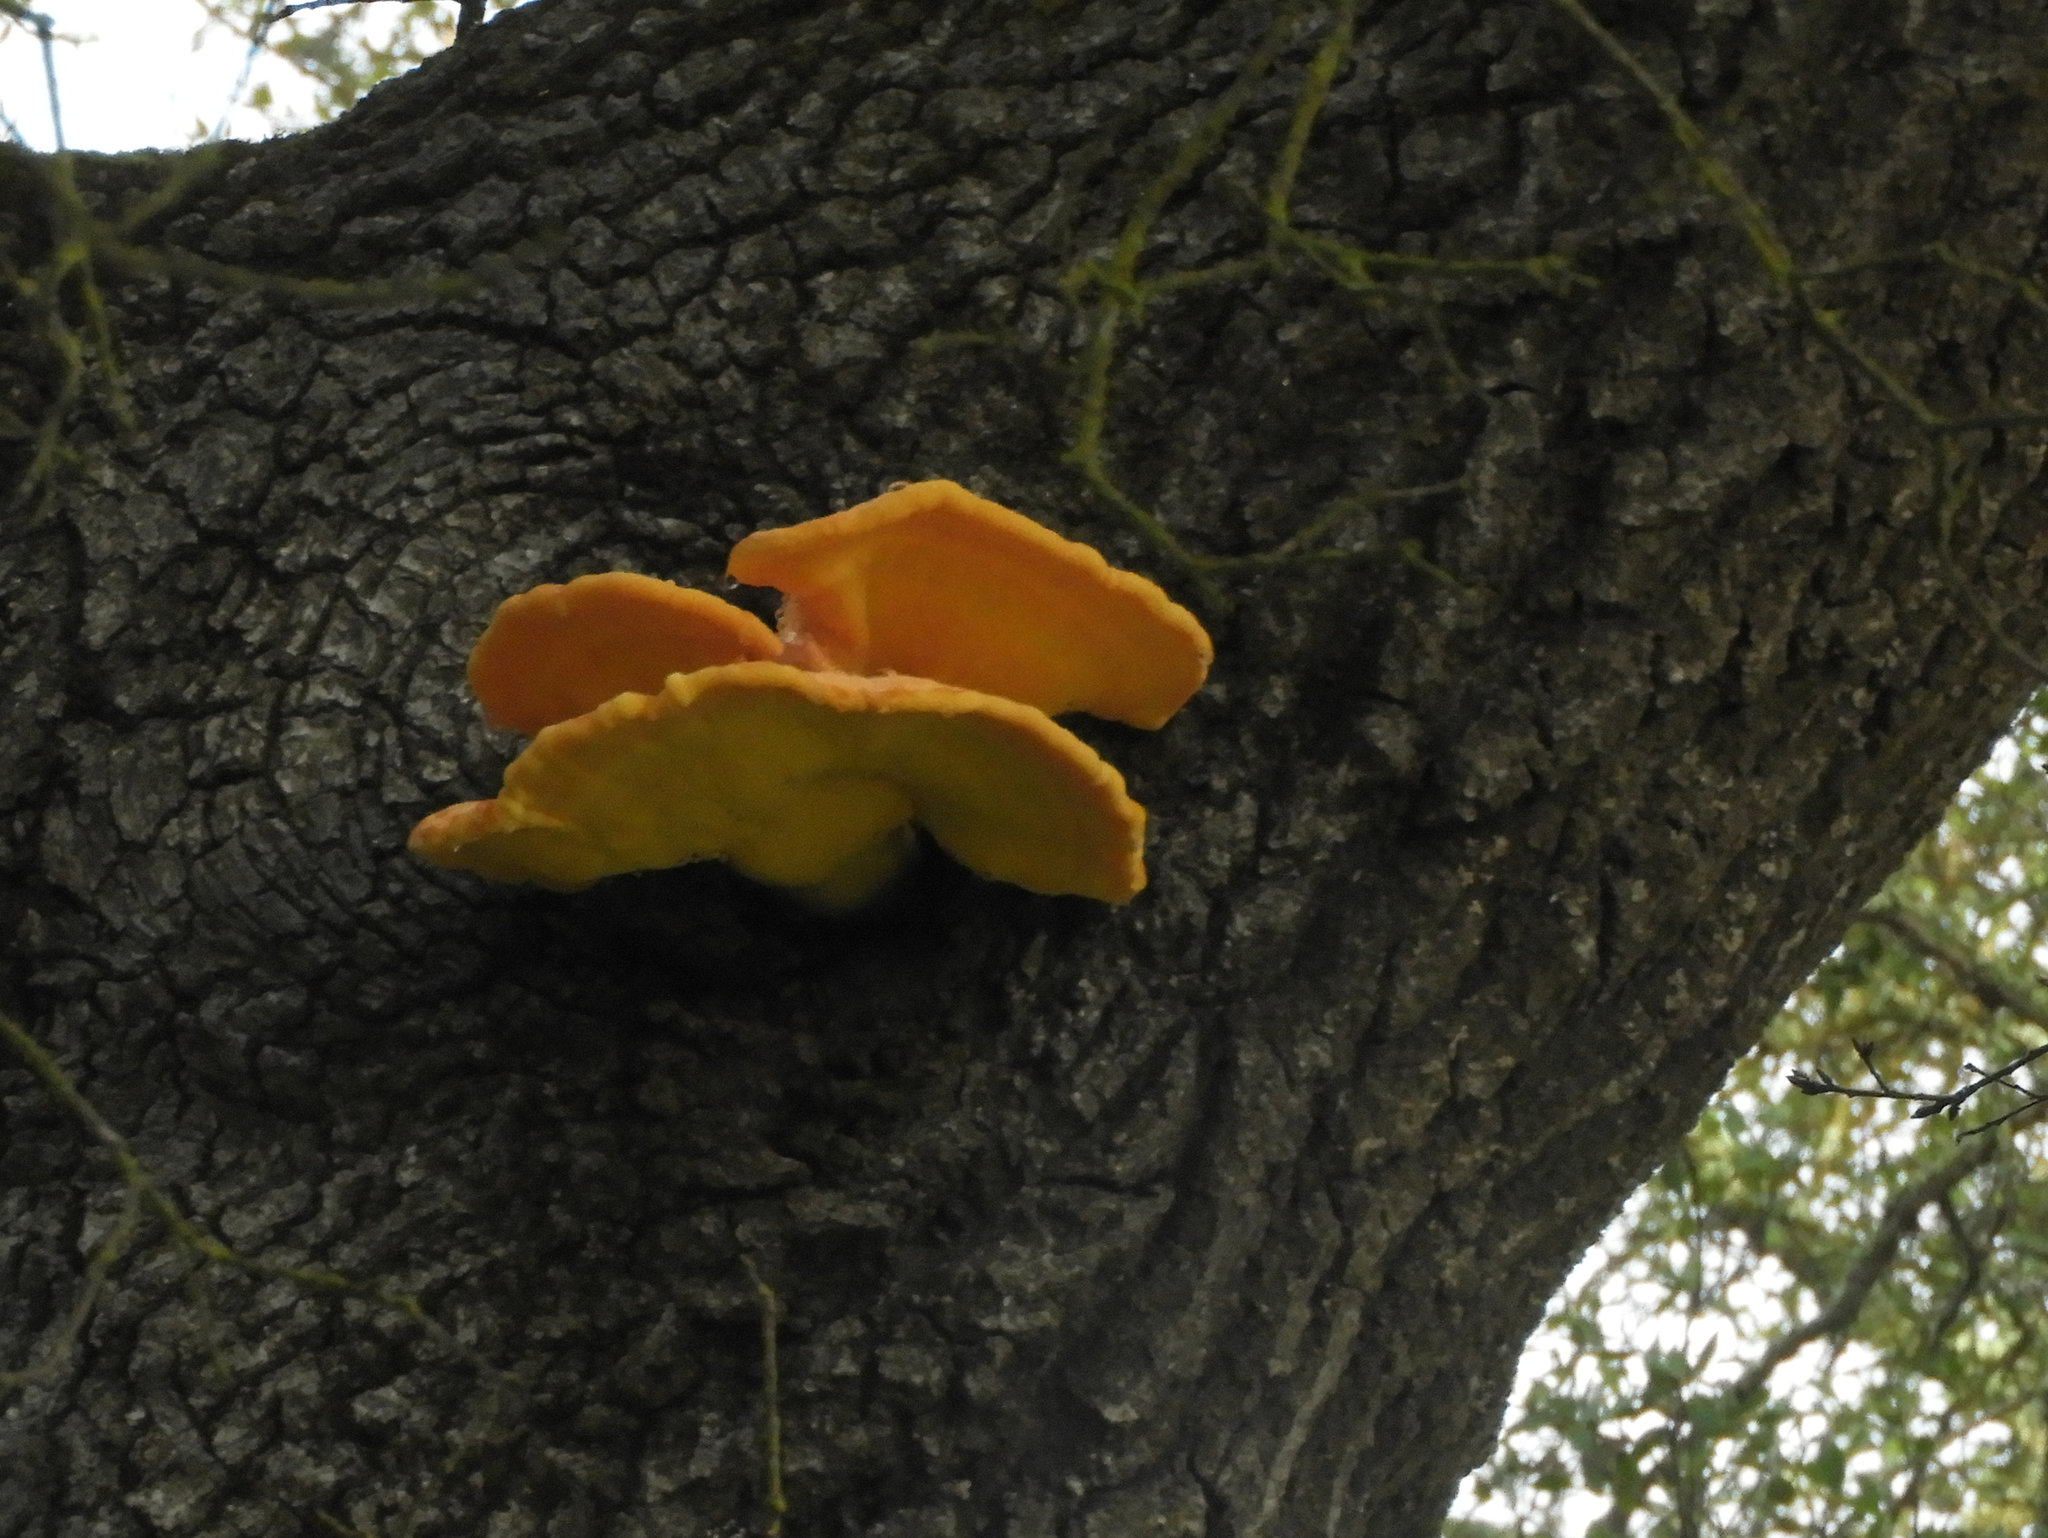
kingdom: Fungi
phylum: Basidiomycota
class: Agaricomycetes
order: Polyporales
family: Laetiporaceae
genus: Laetiporus
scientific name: Laetiporus gilbertsonii
